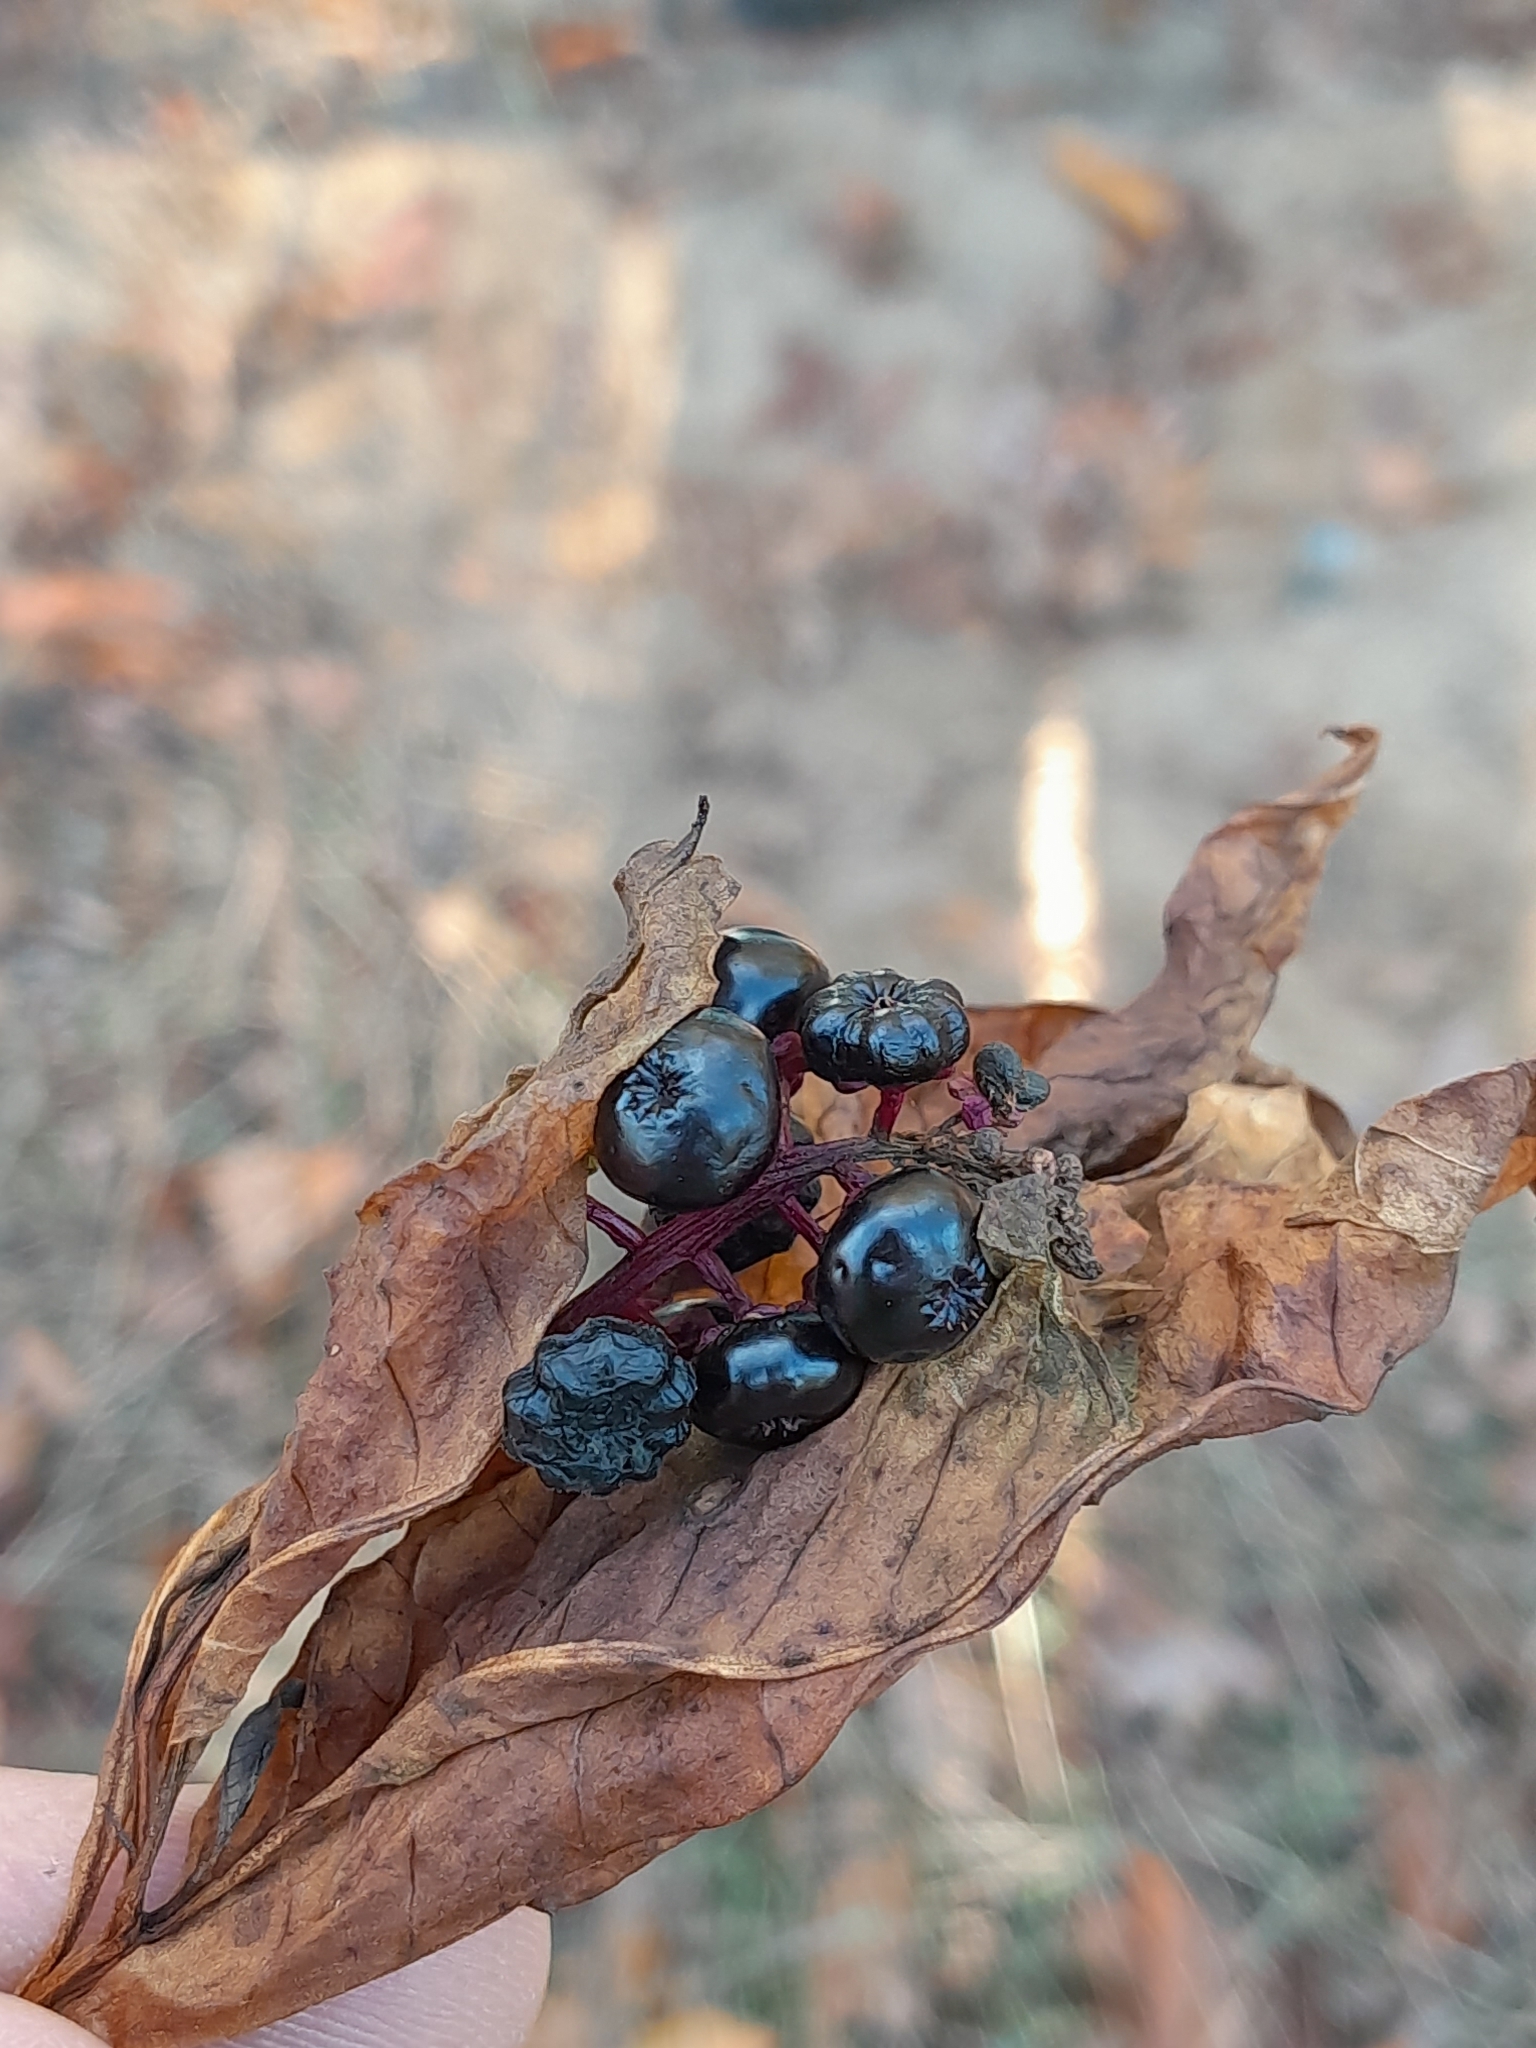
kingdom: Plantae
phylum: Tracheophyta
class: Magnoliopsida
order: Caryophyllales
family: Phytolaccaceae
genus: Phytolacca
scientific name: Phytolacca americana
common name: American pokeweed
